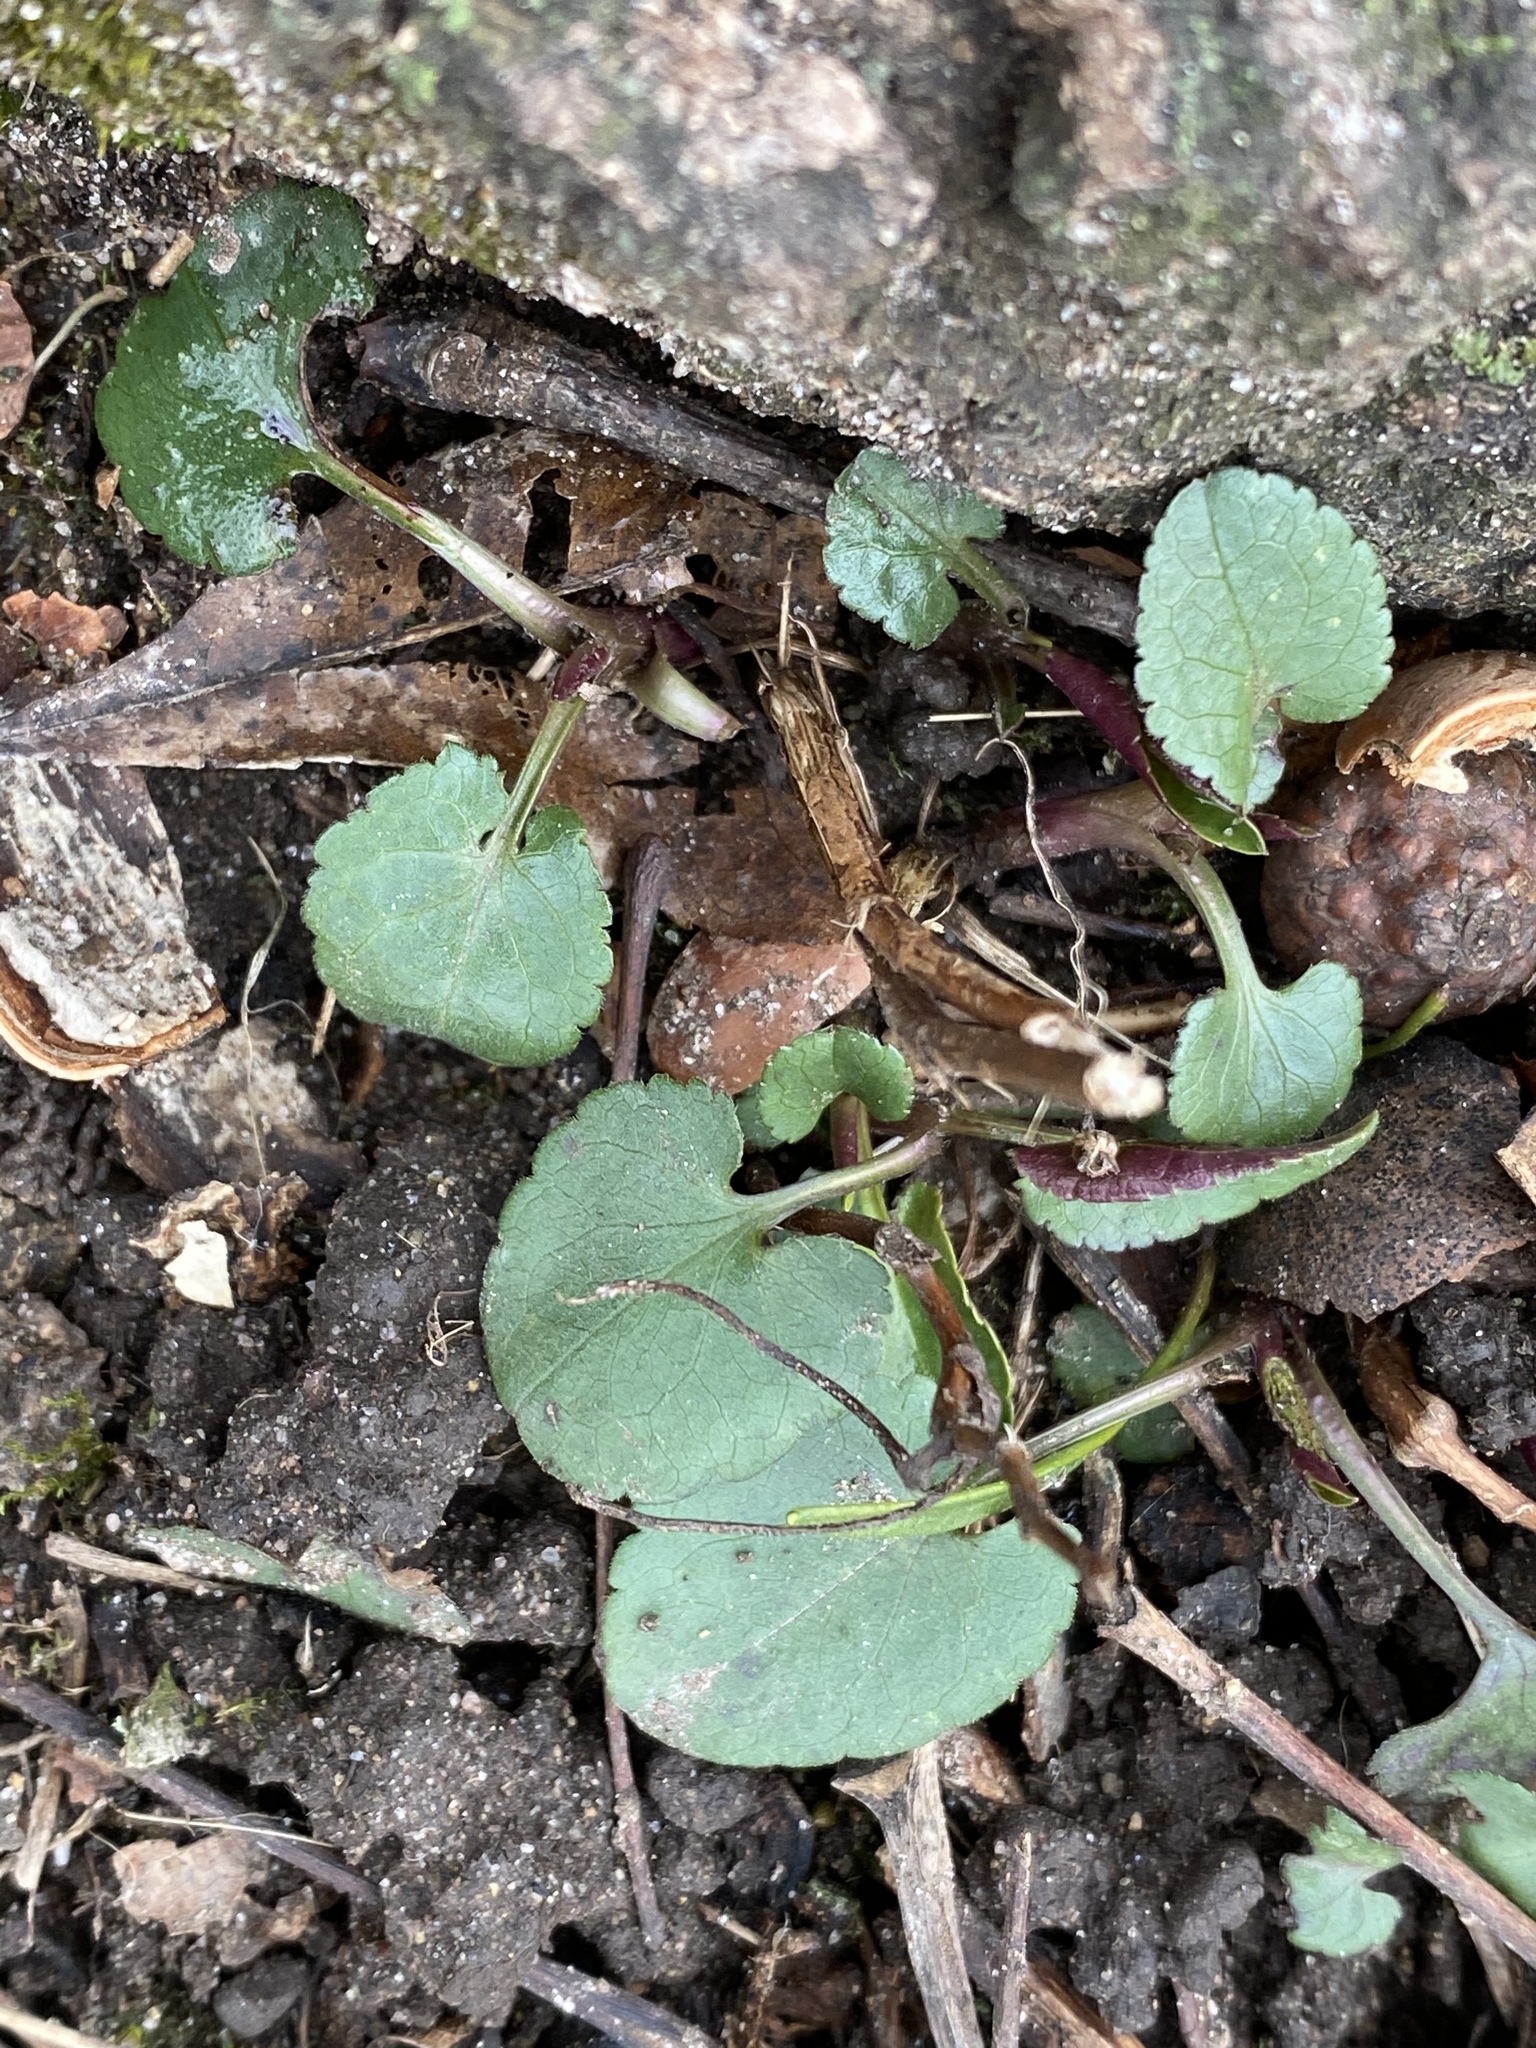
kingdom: Plantae
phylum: Tracheophyta
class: Magnoliopsida
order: Ranunculales
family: Ranunculaceae
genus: Ranunculus
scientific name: Ranunculus abortivus
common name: Early wood buttercup
